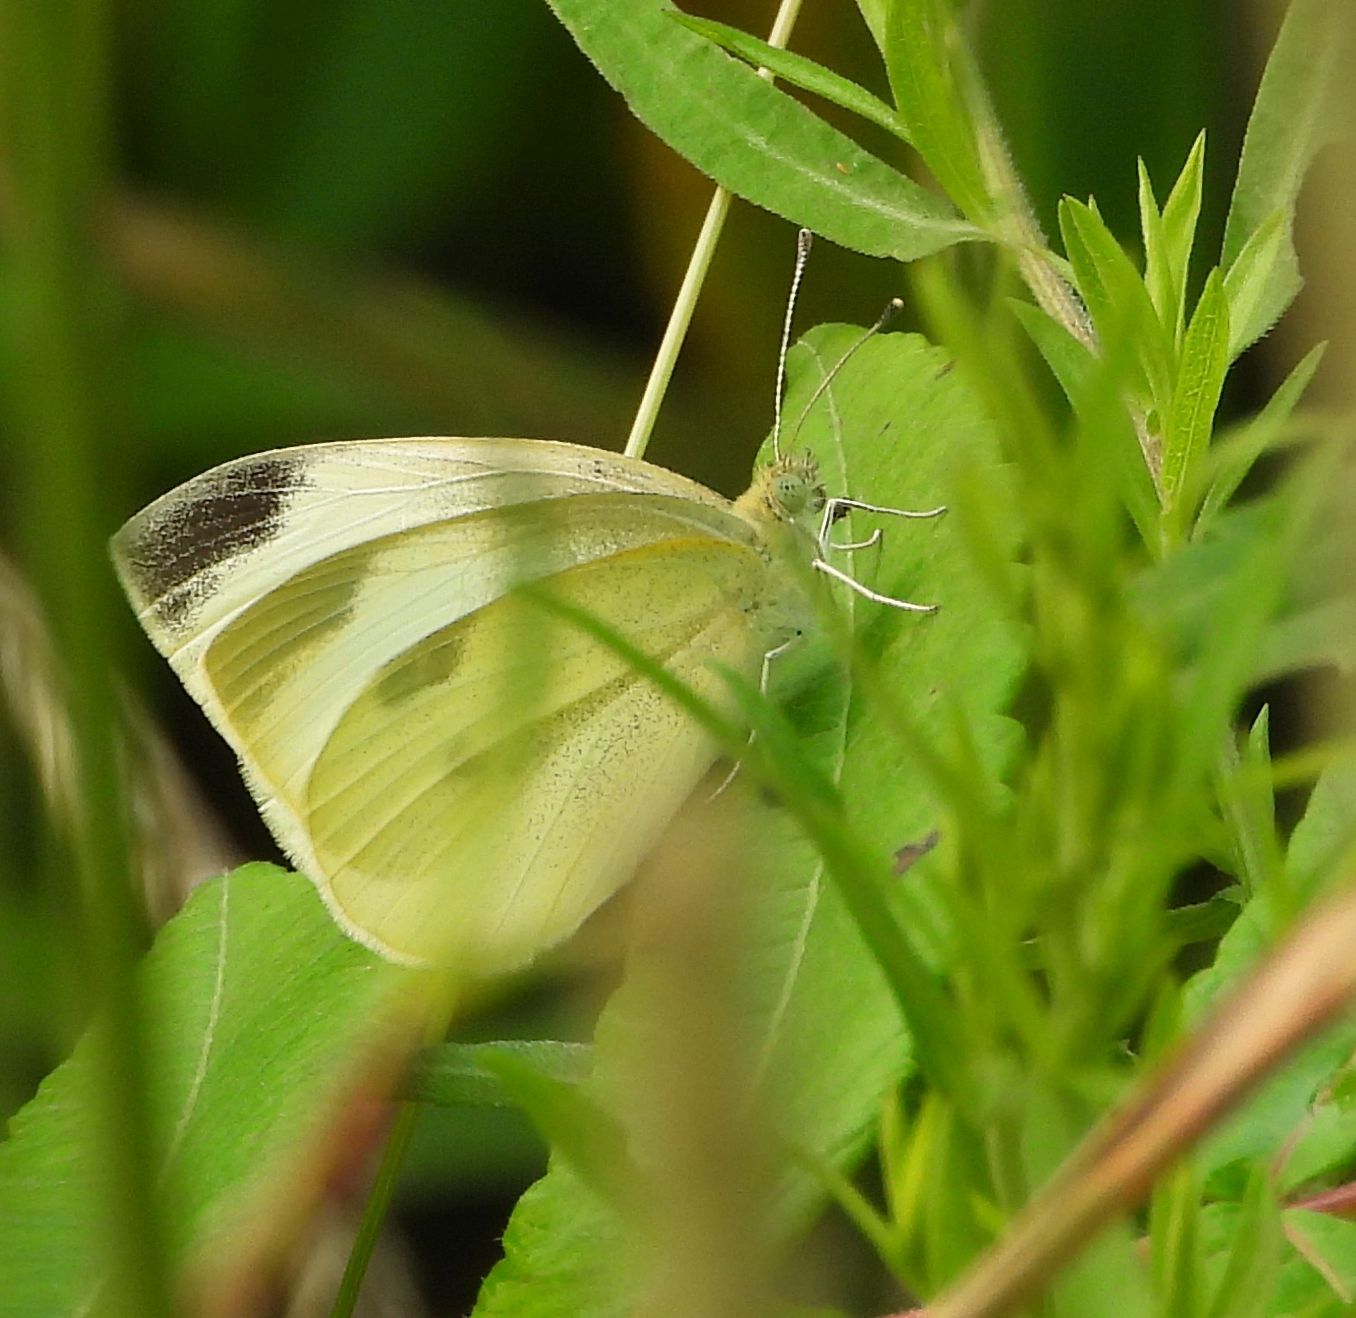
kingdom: Animalia
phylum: Arthropoda
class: Insecta
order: Lepidoptera
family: Pieridae
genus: Pieris
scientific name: Pieris rapae
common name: Small white
